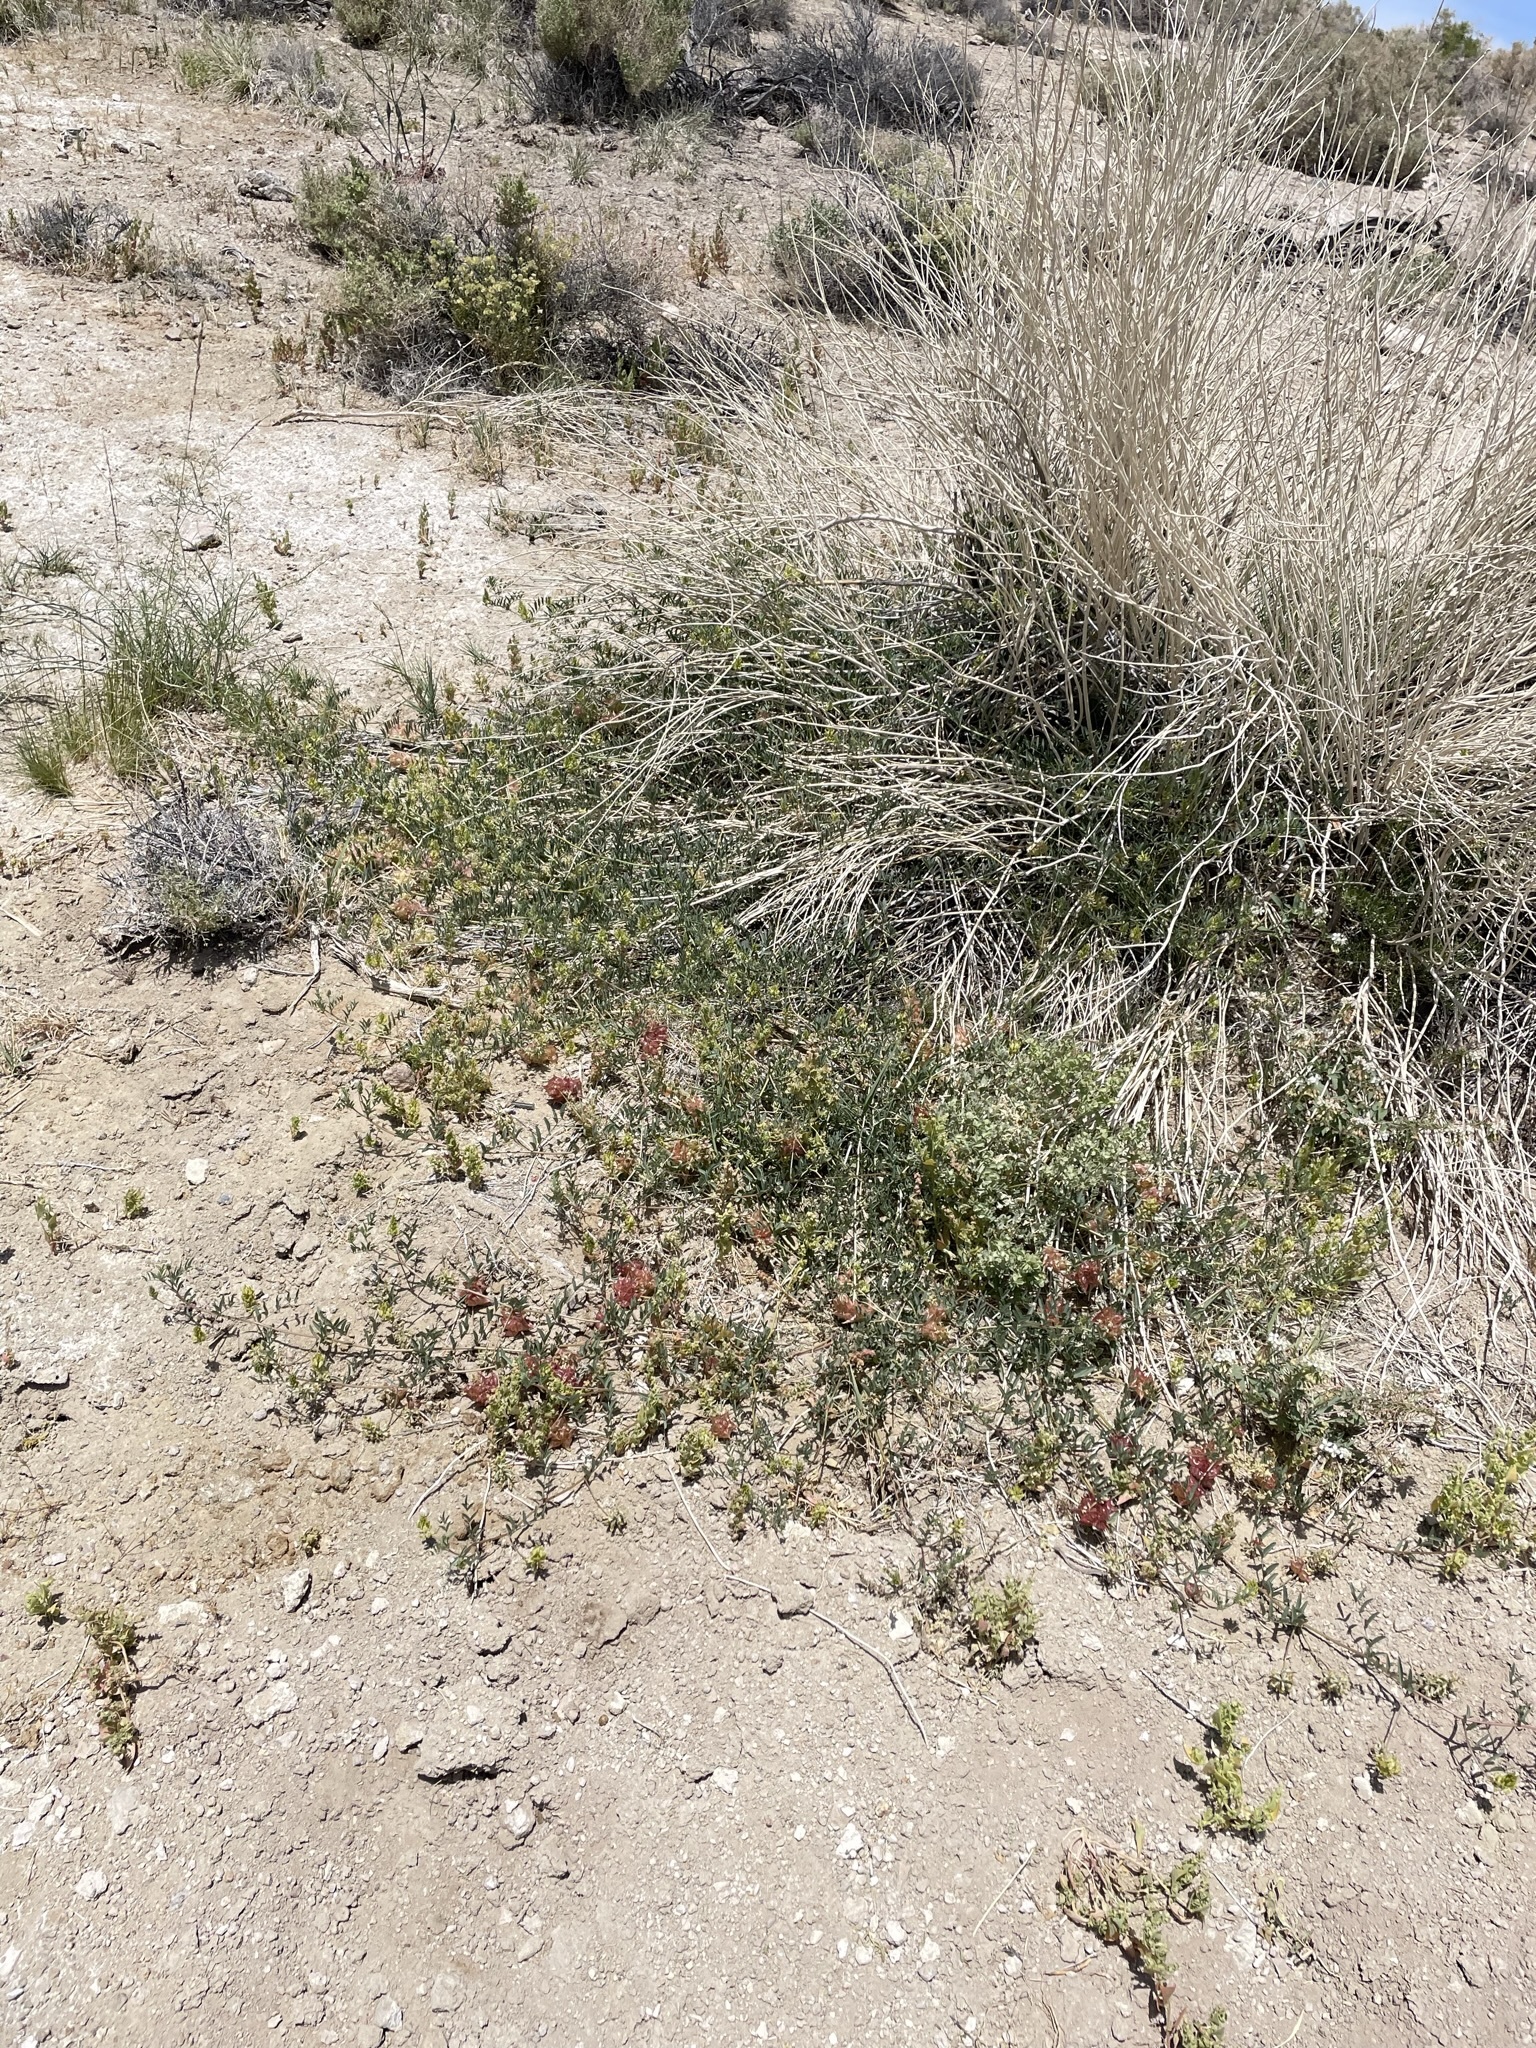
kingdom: Plantae
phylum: Tracheophyta
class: Magnoliopsida
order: Fabales
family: Fabaceae
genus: Astragalus
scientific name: Astragalus lentiginosus
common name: Freckled milkvetch
